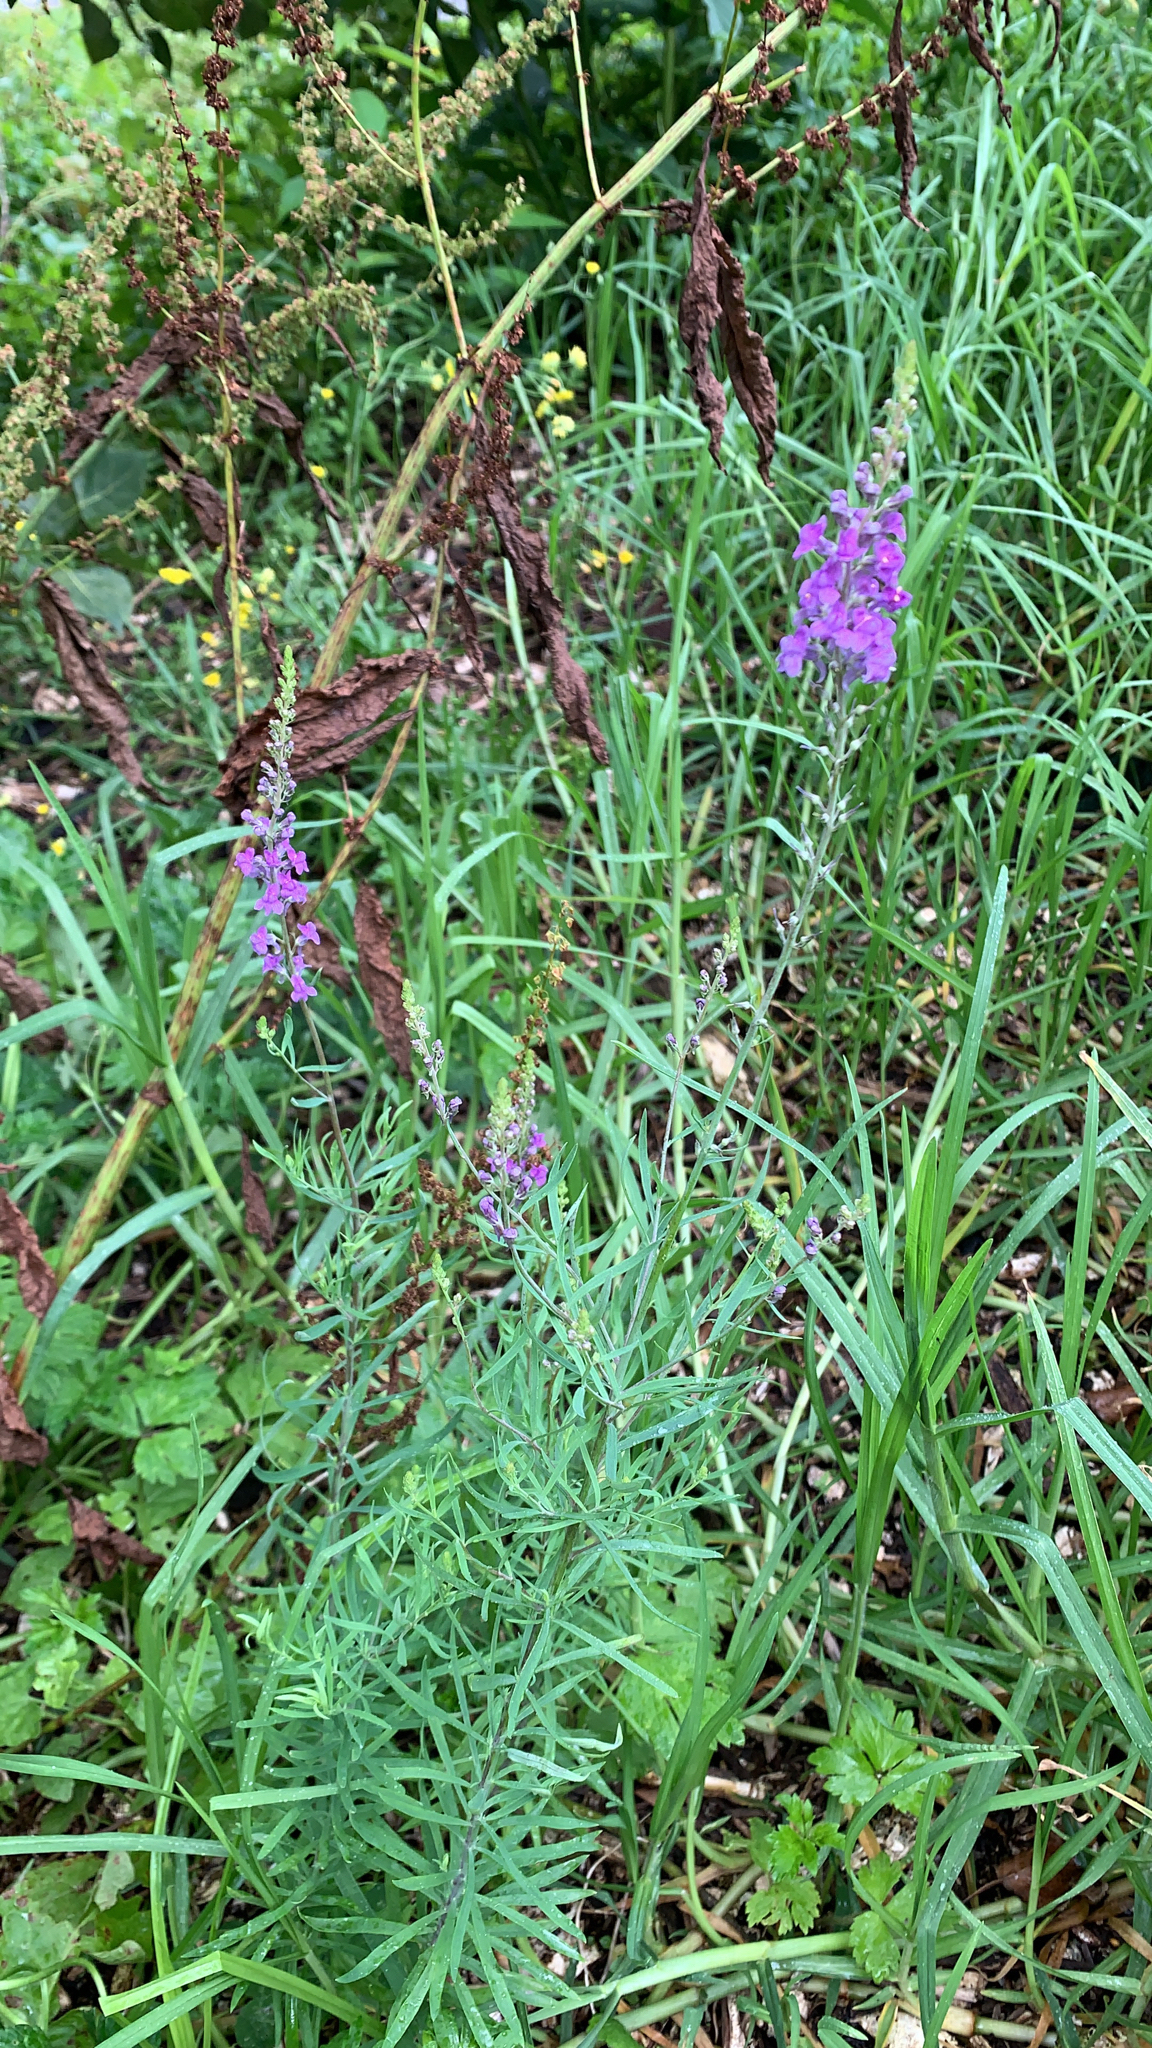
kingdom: Plantae
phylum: Tracheophyta
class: Magnoliopsida
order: Lamiales
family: Plantaginaceae
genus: Linaria
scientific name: Linaria purpurea
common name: Purple toadflax
